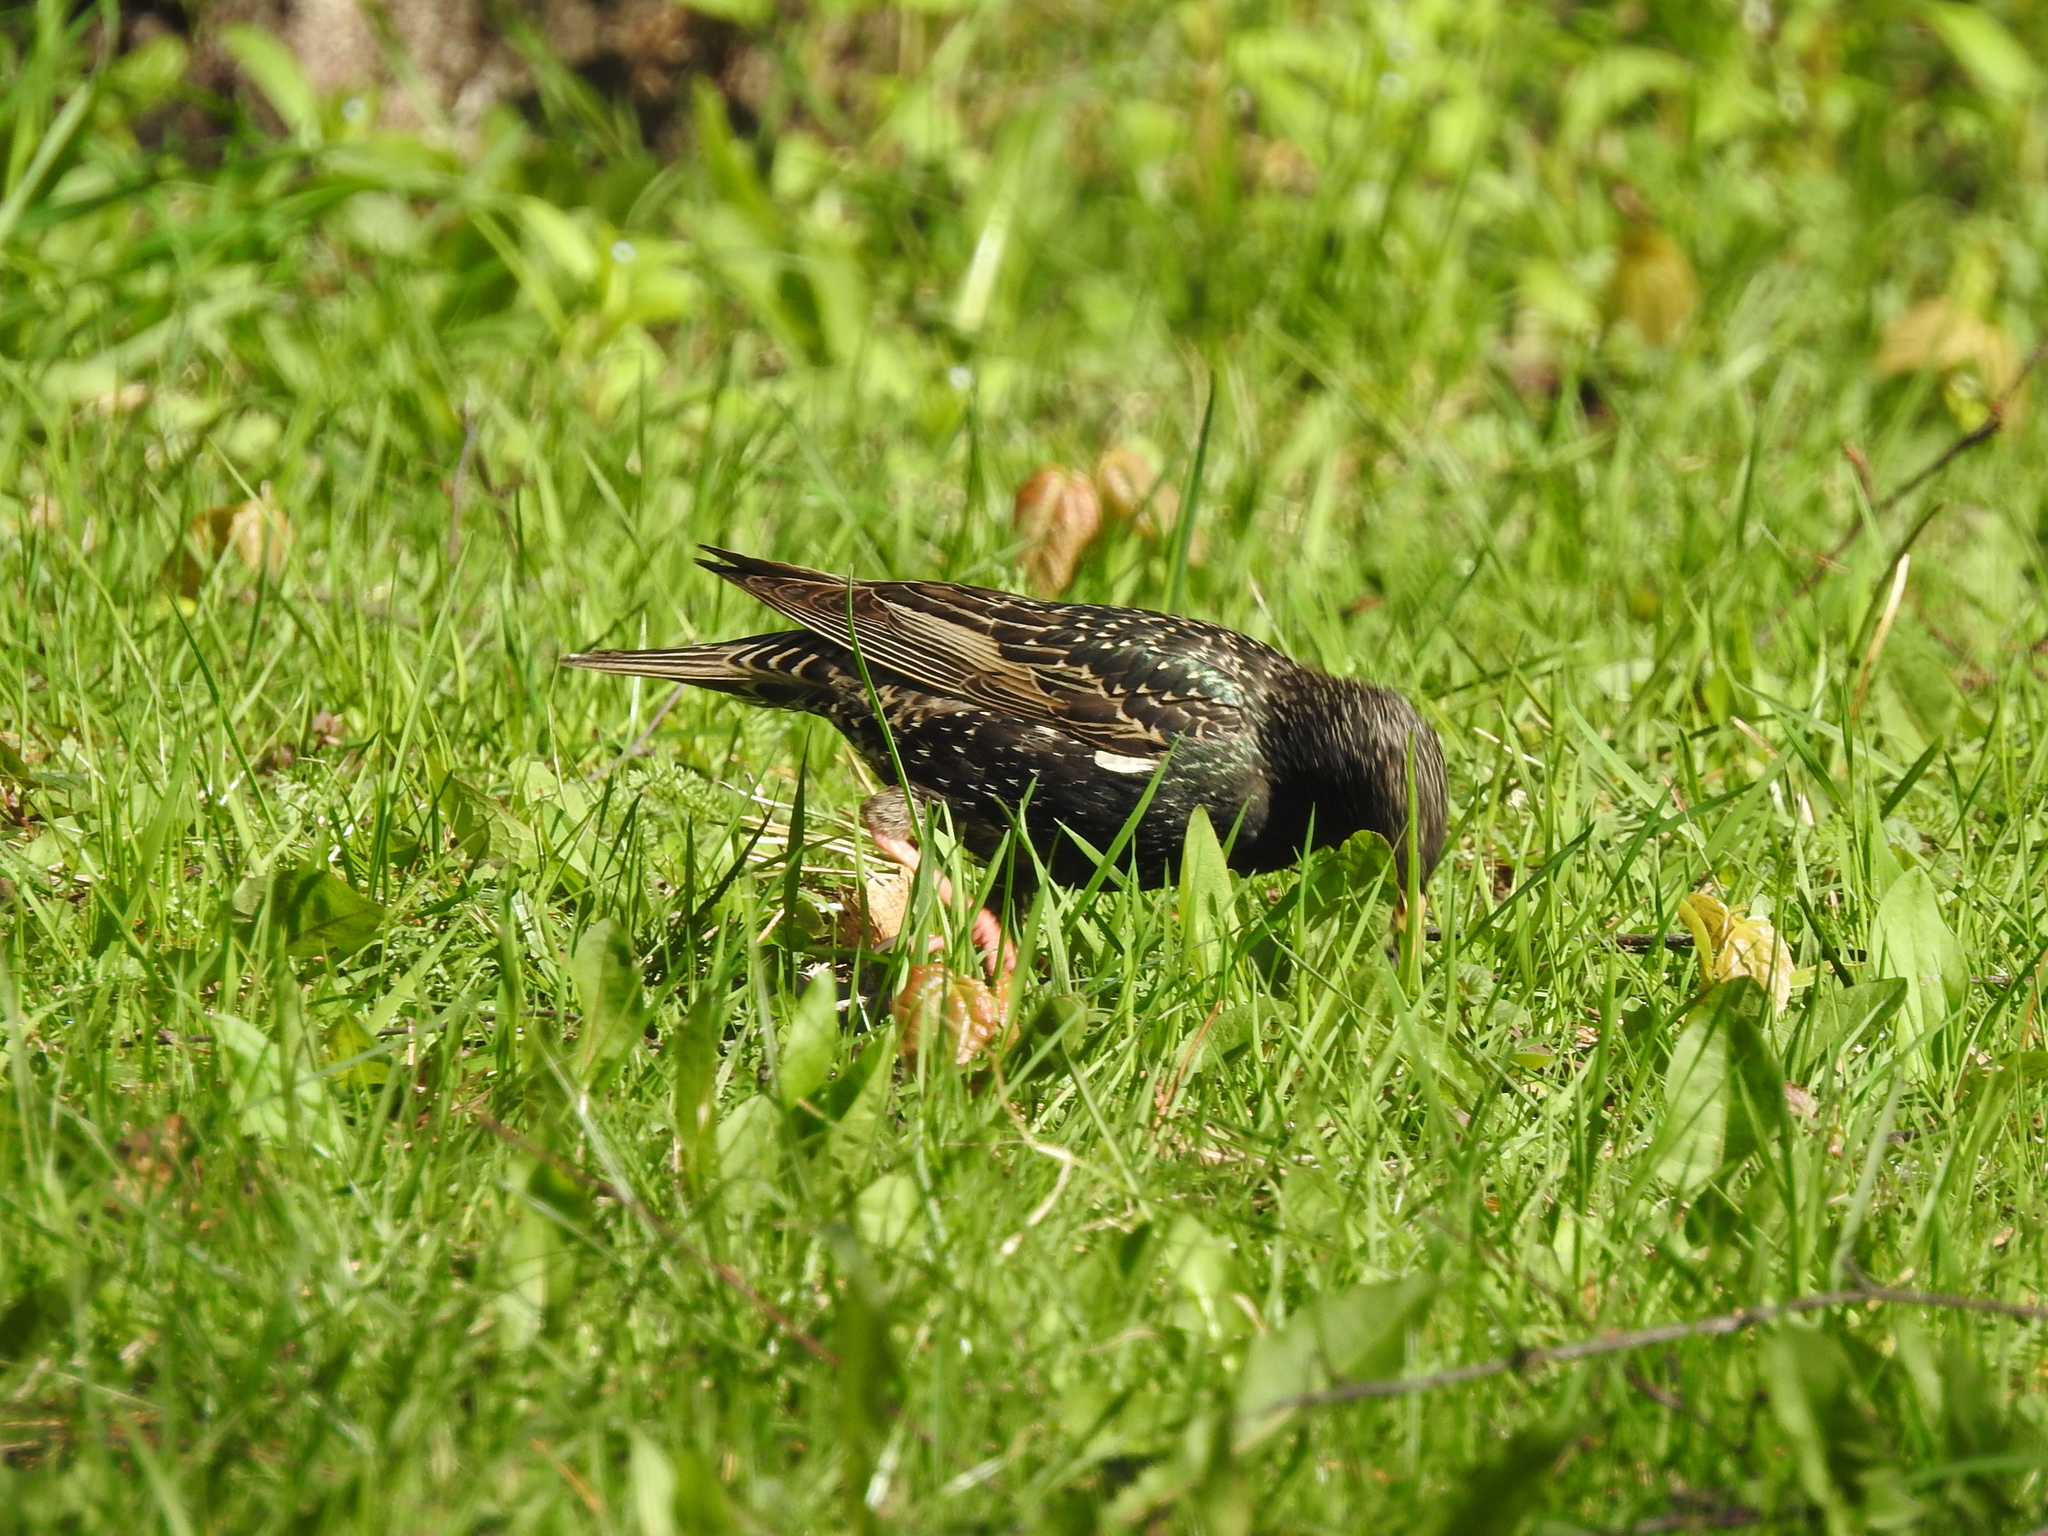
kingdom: Animalia
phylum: Chordata
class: Aves
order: Passeriformes
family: Sturnidae
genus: Sturnus
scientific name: Sturnus vulgaris
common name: Common starling
